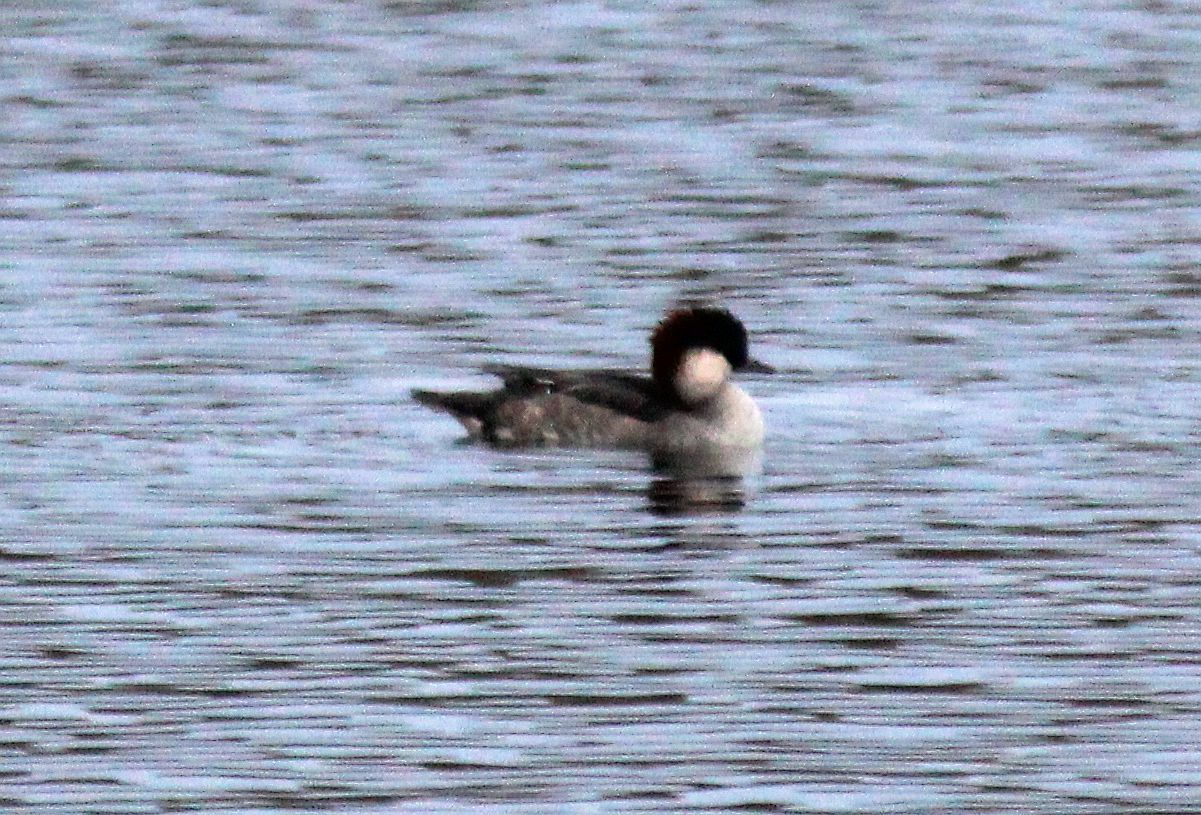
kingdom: Animalia
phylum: Chordata
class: Aves
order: Anseriformes
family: Anatidae
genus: Mergellus
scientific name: Mergellus albellus
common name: Smew
